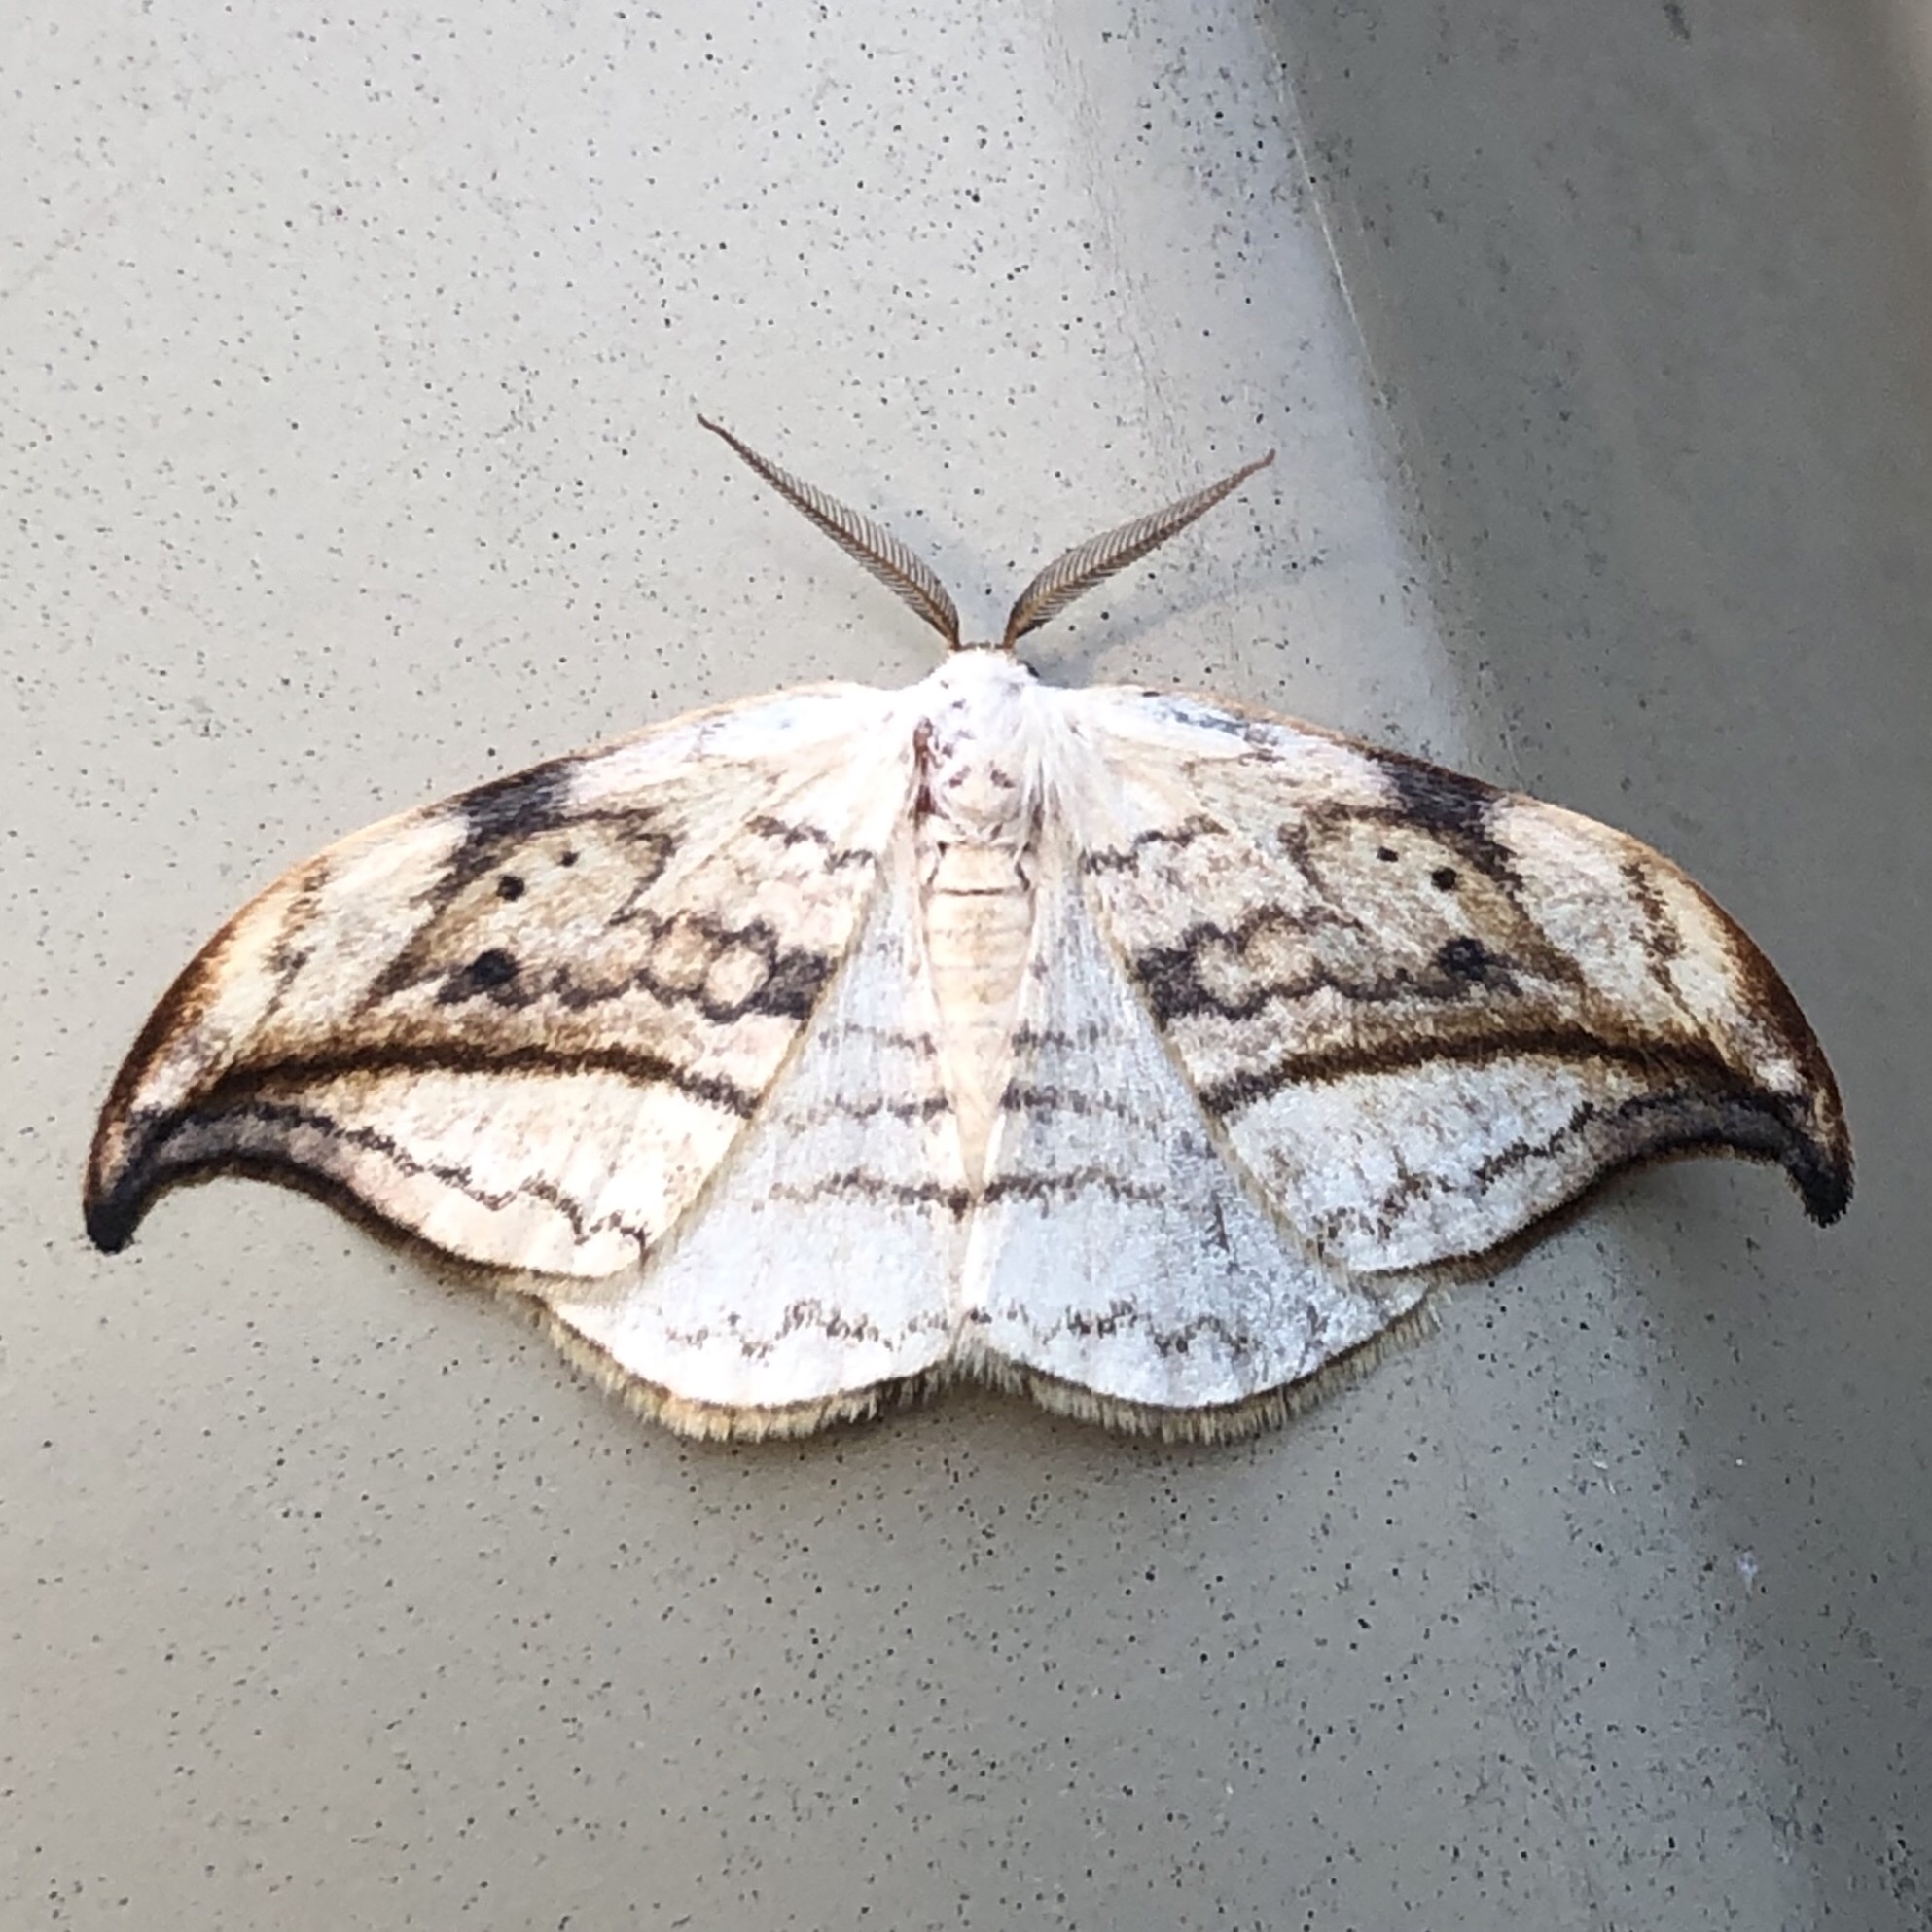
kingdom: Animalia
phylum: Arthropoda
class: Insecta
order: Lepidoptera
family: Drepanidae
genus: Drepana
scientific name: Drepana arcuata
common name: Arched hooktip moth
